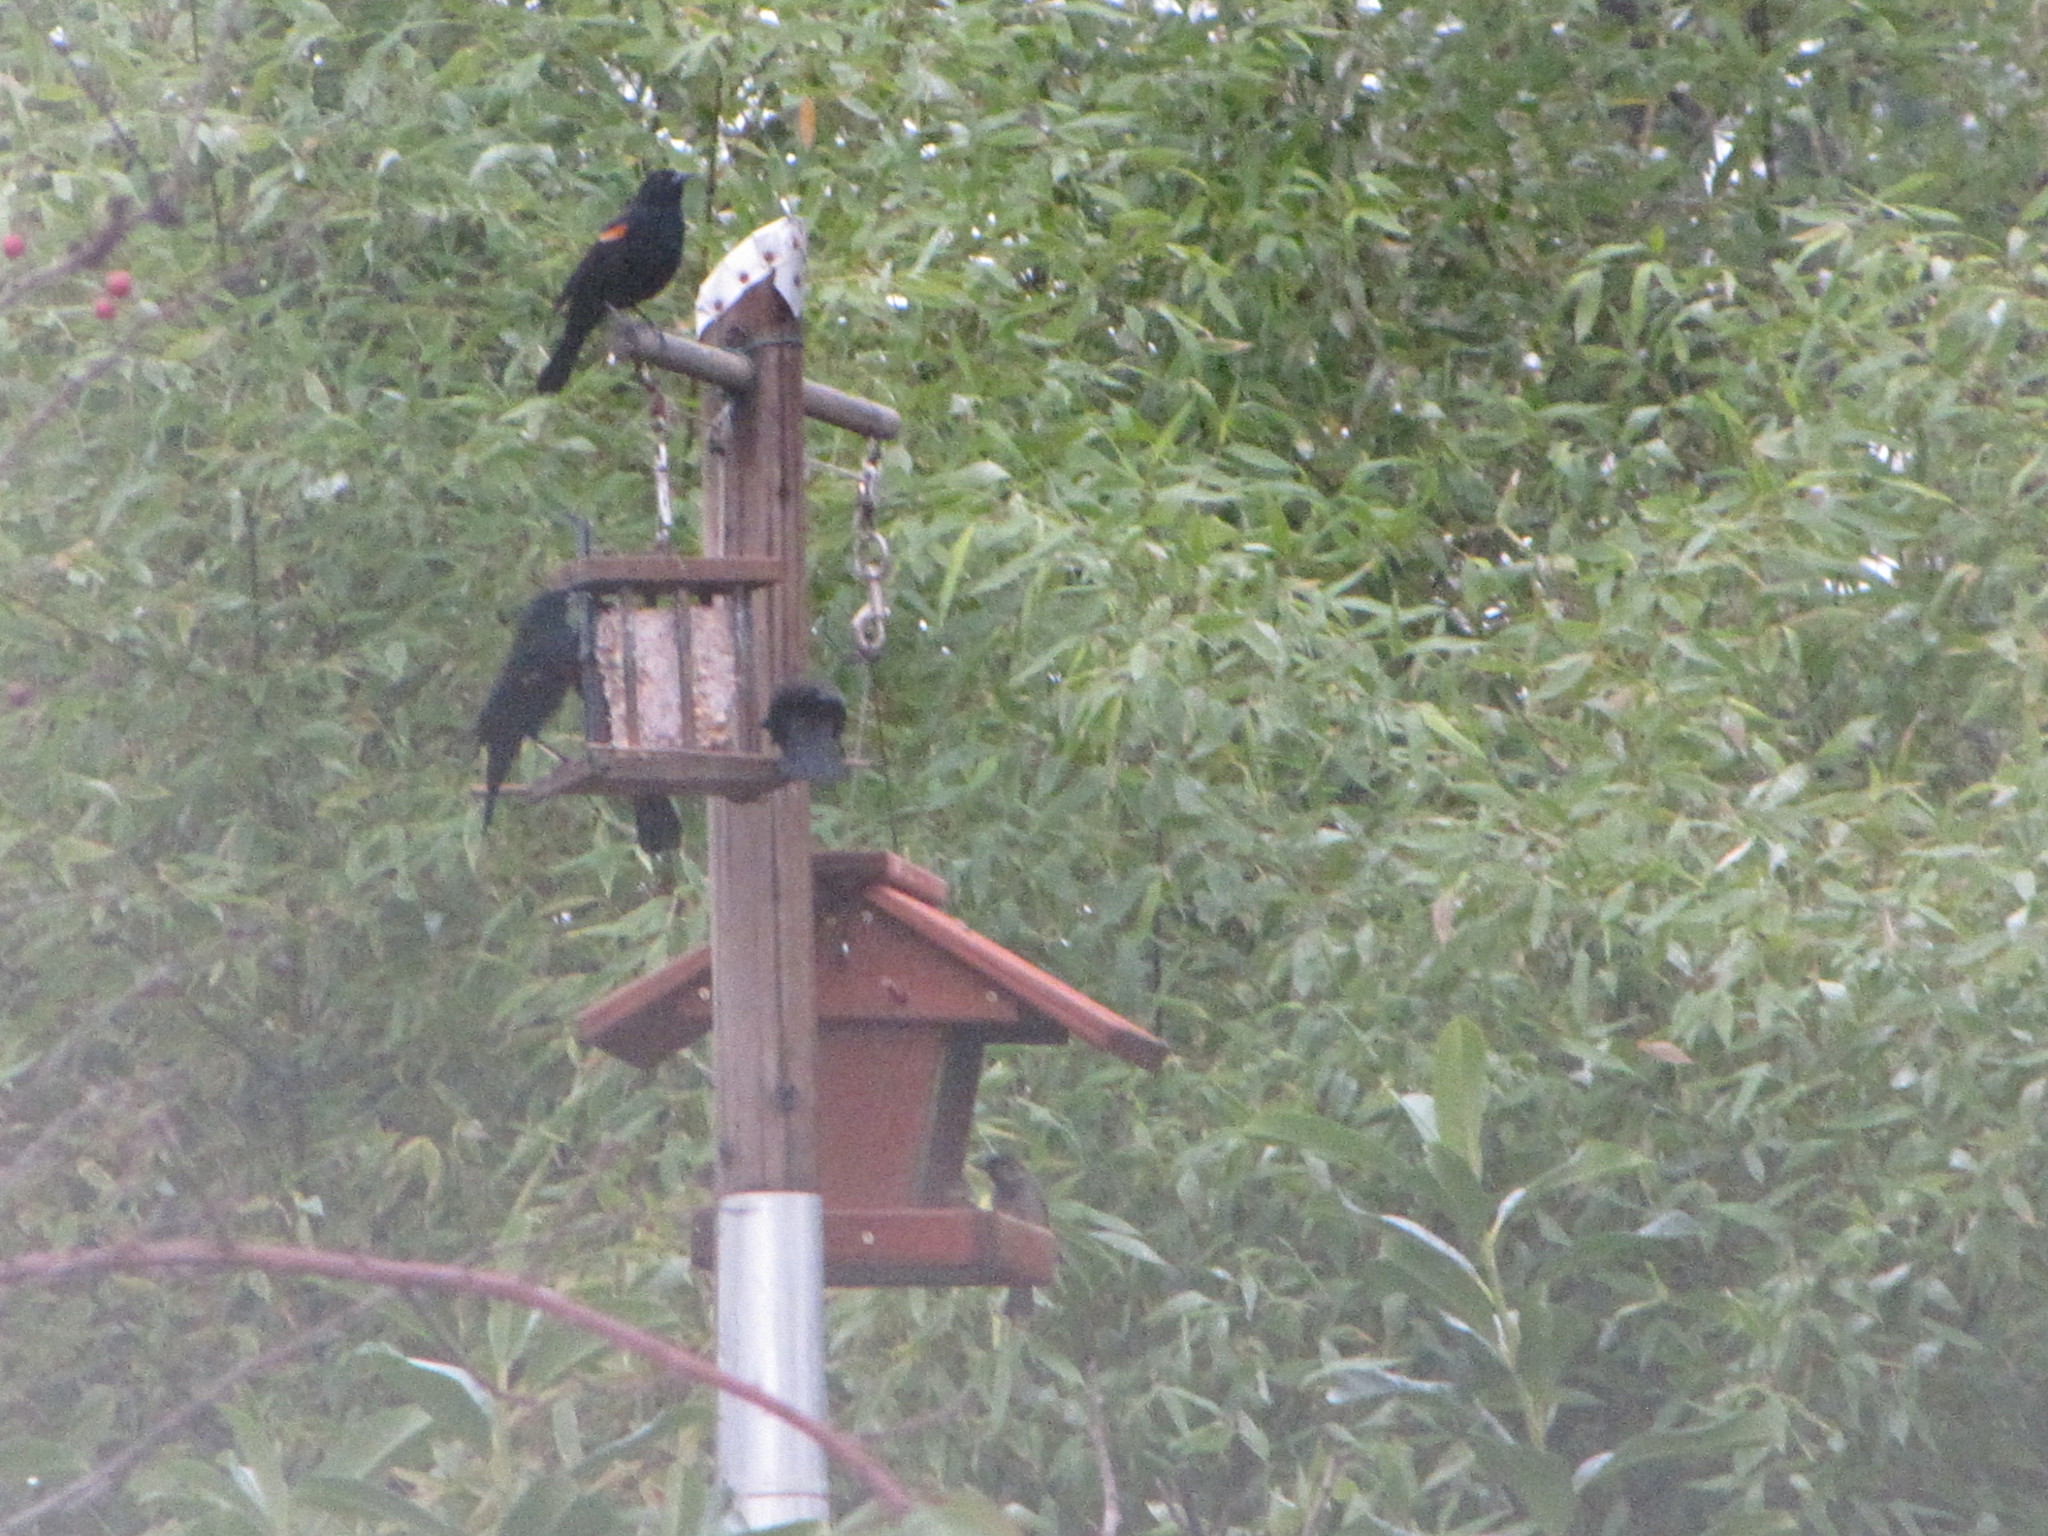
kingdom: Animalia
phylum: Chordata
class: Aves
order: Passeriformes
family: Icteridae
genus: Agelaius
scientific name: Agelaius phoeniceus
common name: Red-winged blackbird
